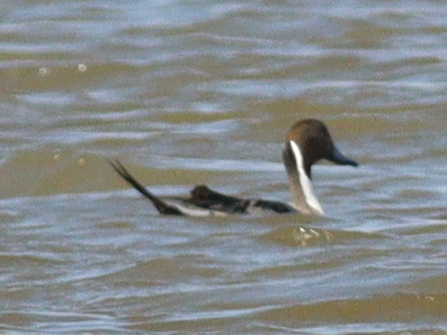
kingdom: Animalia
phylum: Chordata
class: Aves
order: Anseriformes
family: Anatidae
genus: Anas
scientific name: Anas acuta
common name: Northern pintail
